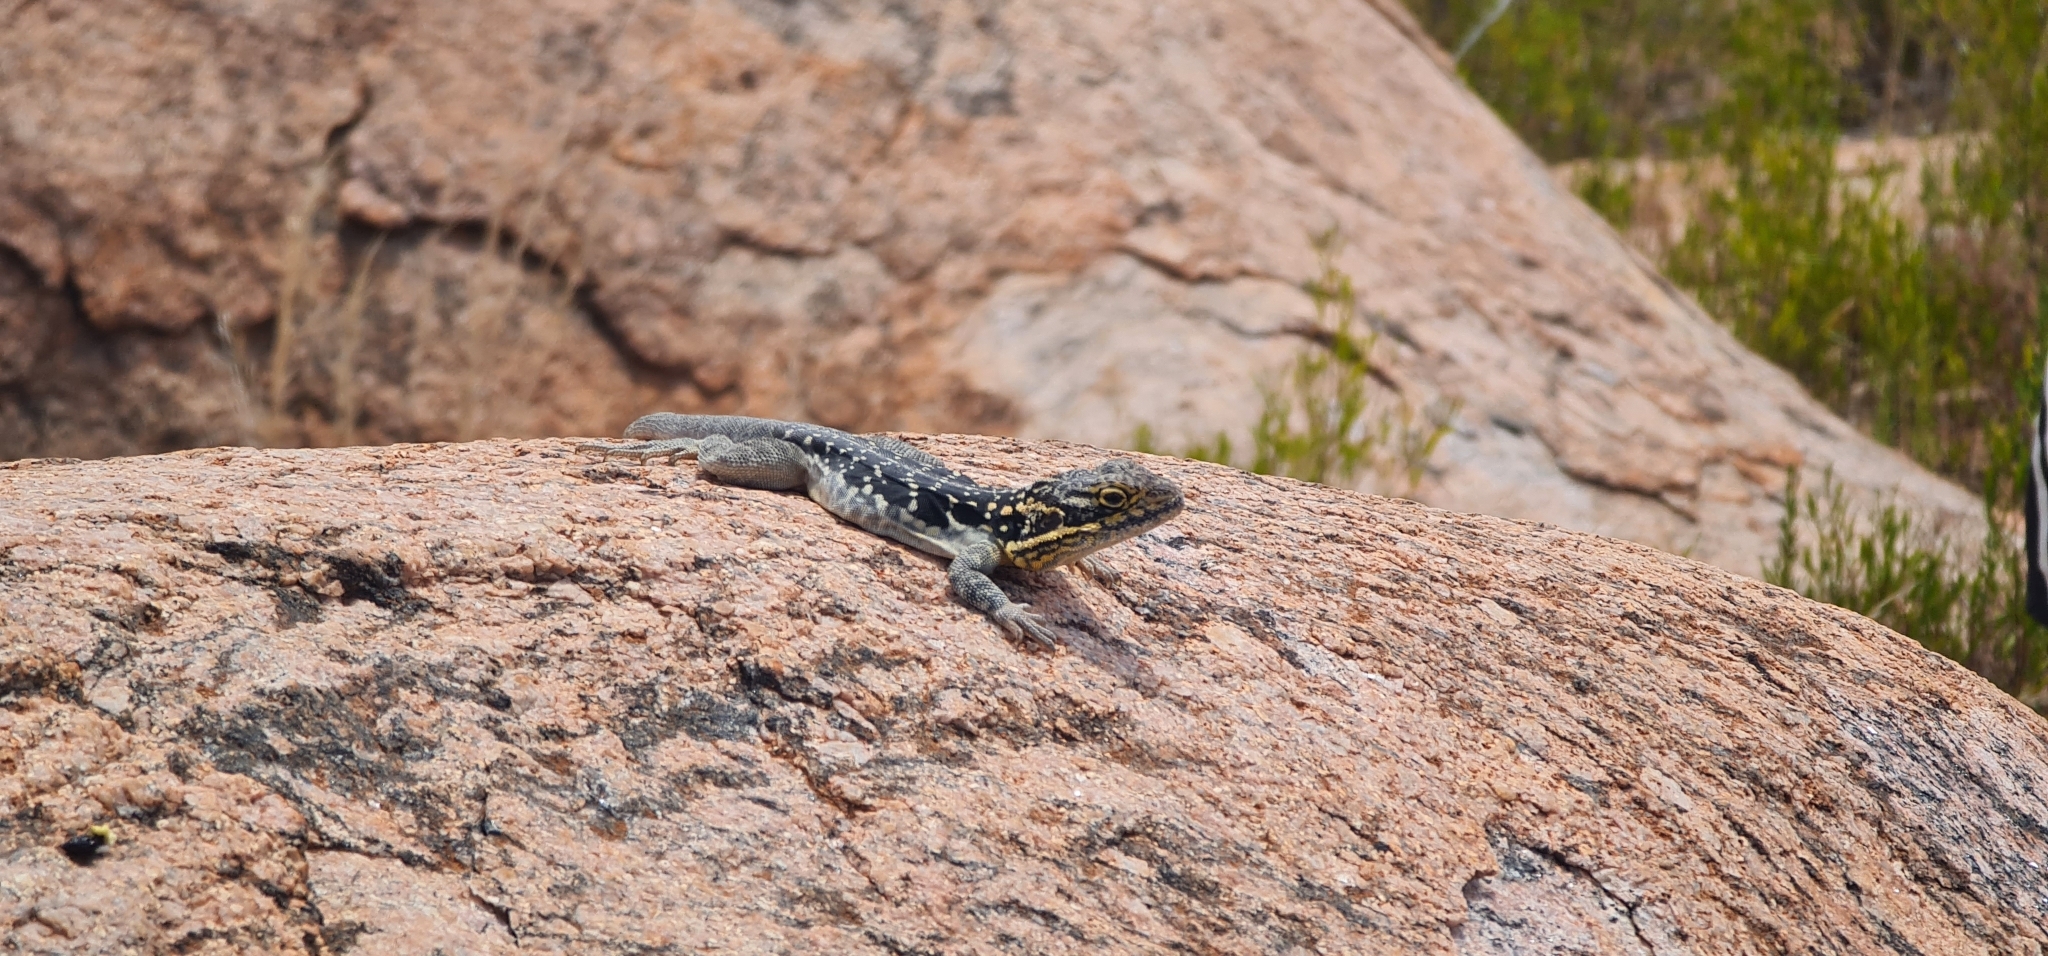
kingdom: Animalia
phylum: Chordata
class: Squamata
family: Agamidae
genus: Ctenophorus
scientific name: Ctenophorus fionni
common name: Peninsula crevis-dragon
